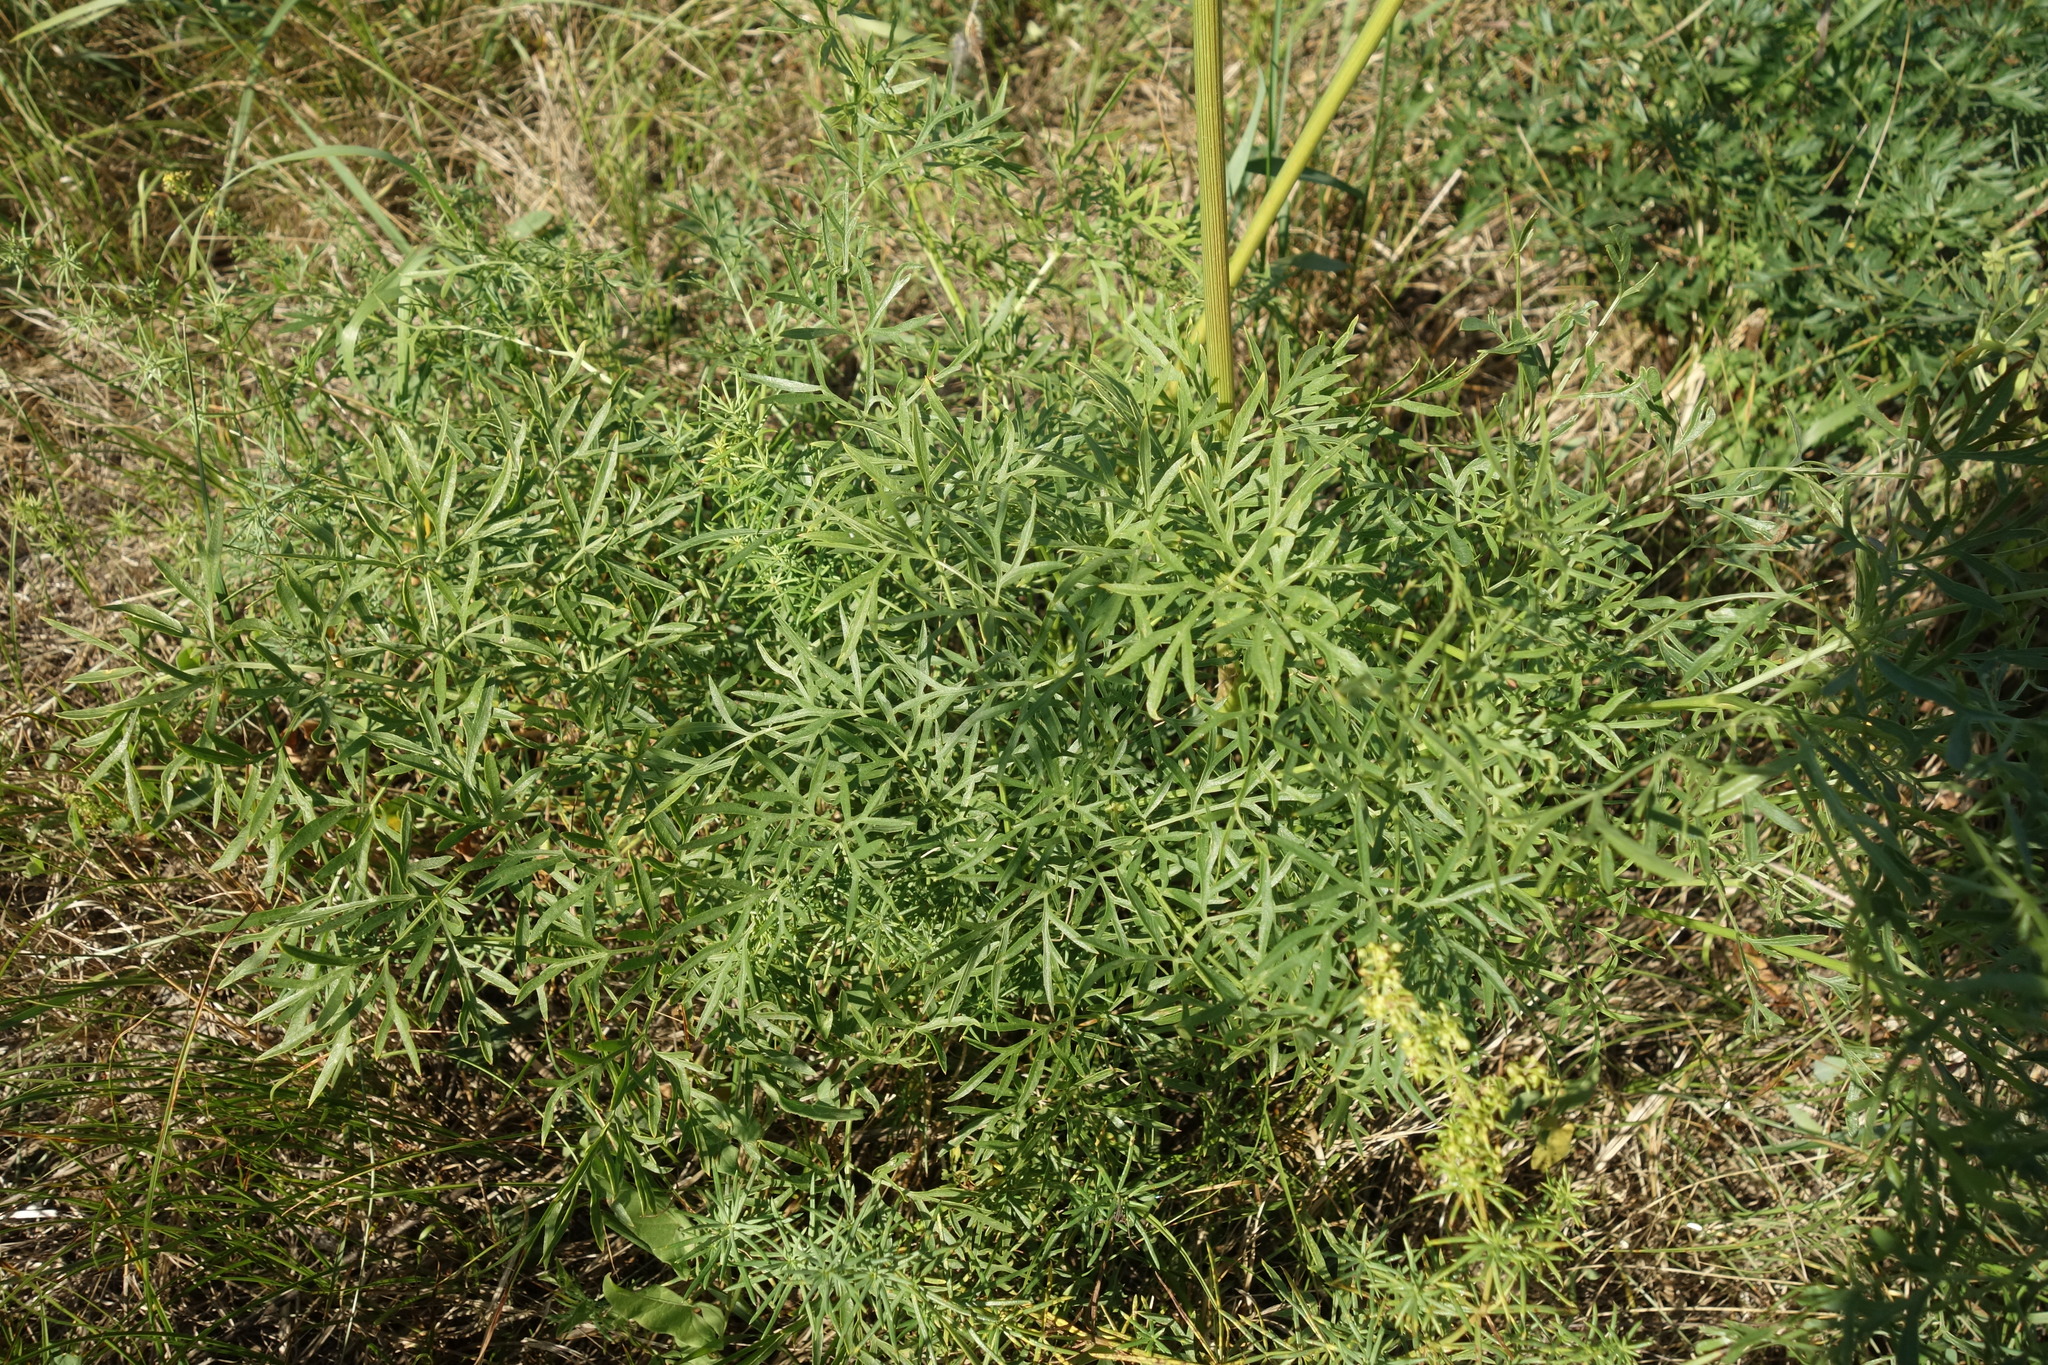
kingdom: Plantae
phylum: Tracheophyta
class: Magnoliopsida
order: Apiales
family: Apiaceae
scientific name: Apiaceae
